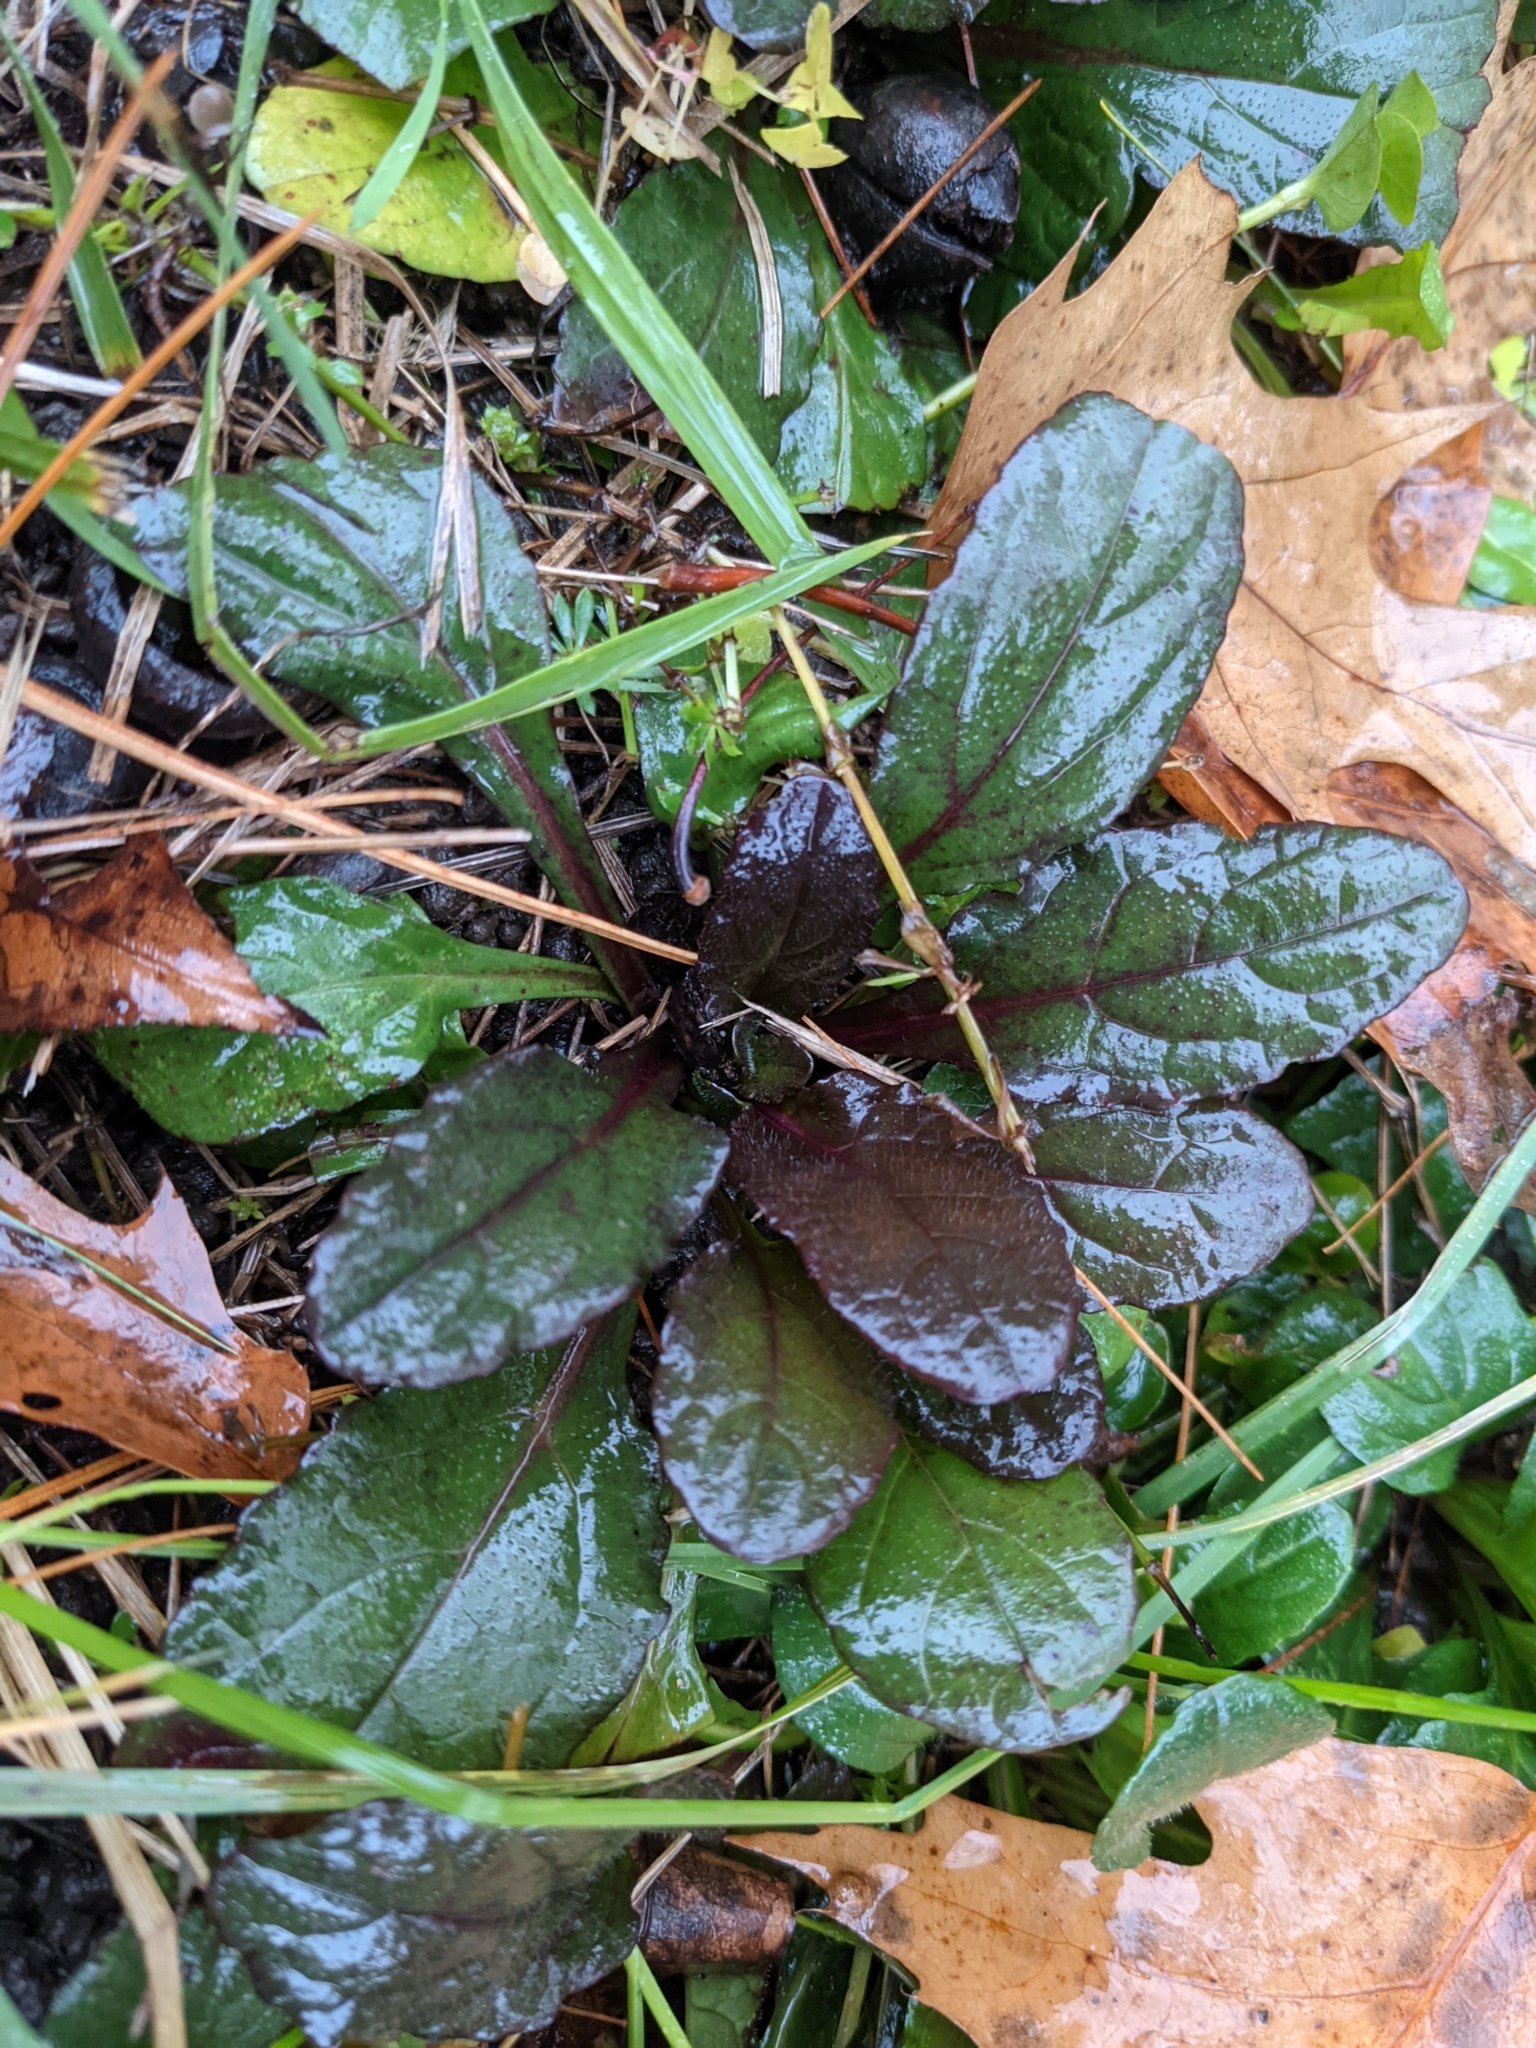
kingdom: Plantae
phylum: Tracheophyta
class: Magnoliopsida
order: Lamiales
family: Lamiaceae
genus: Ajuga
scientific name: Ajuga reptans
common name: Bugle
